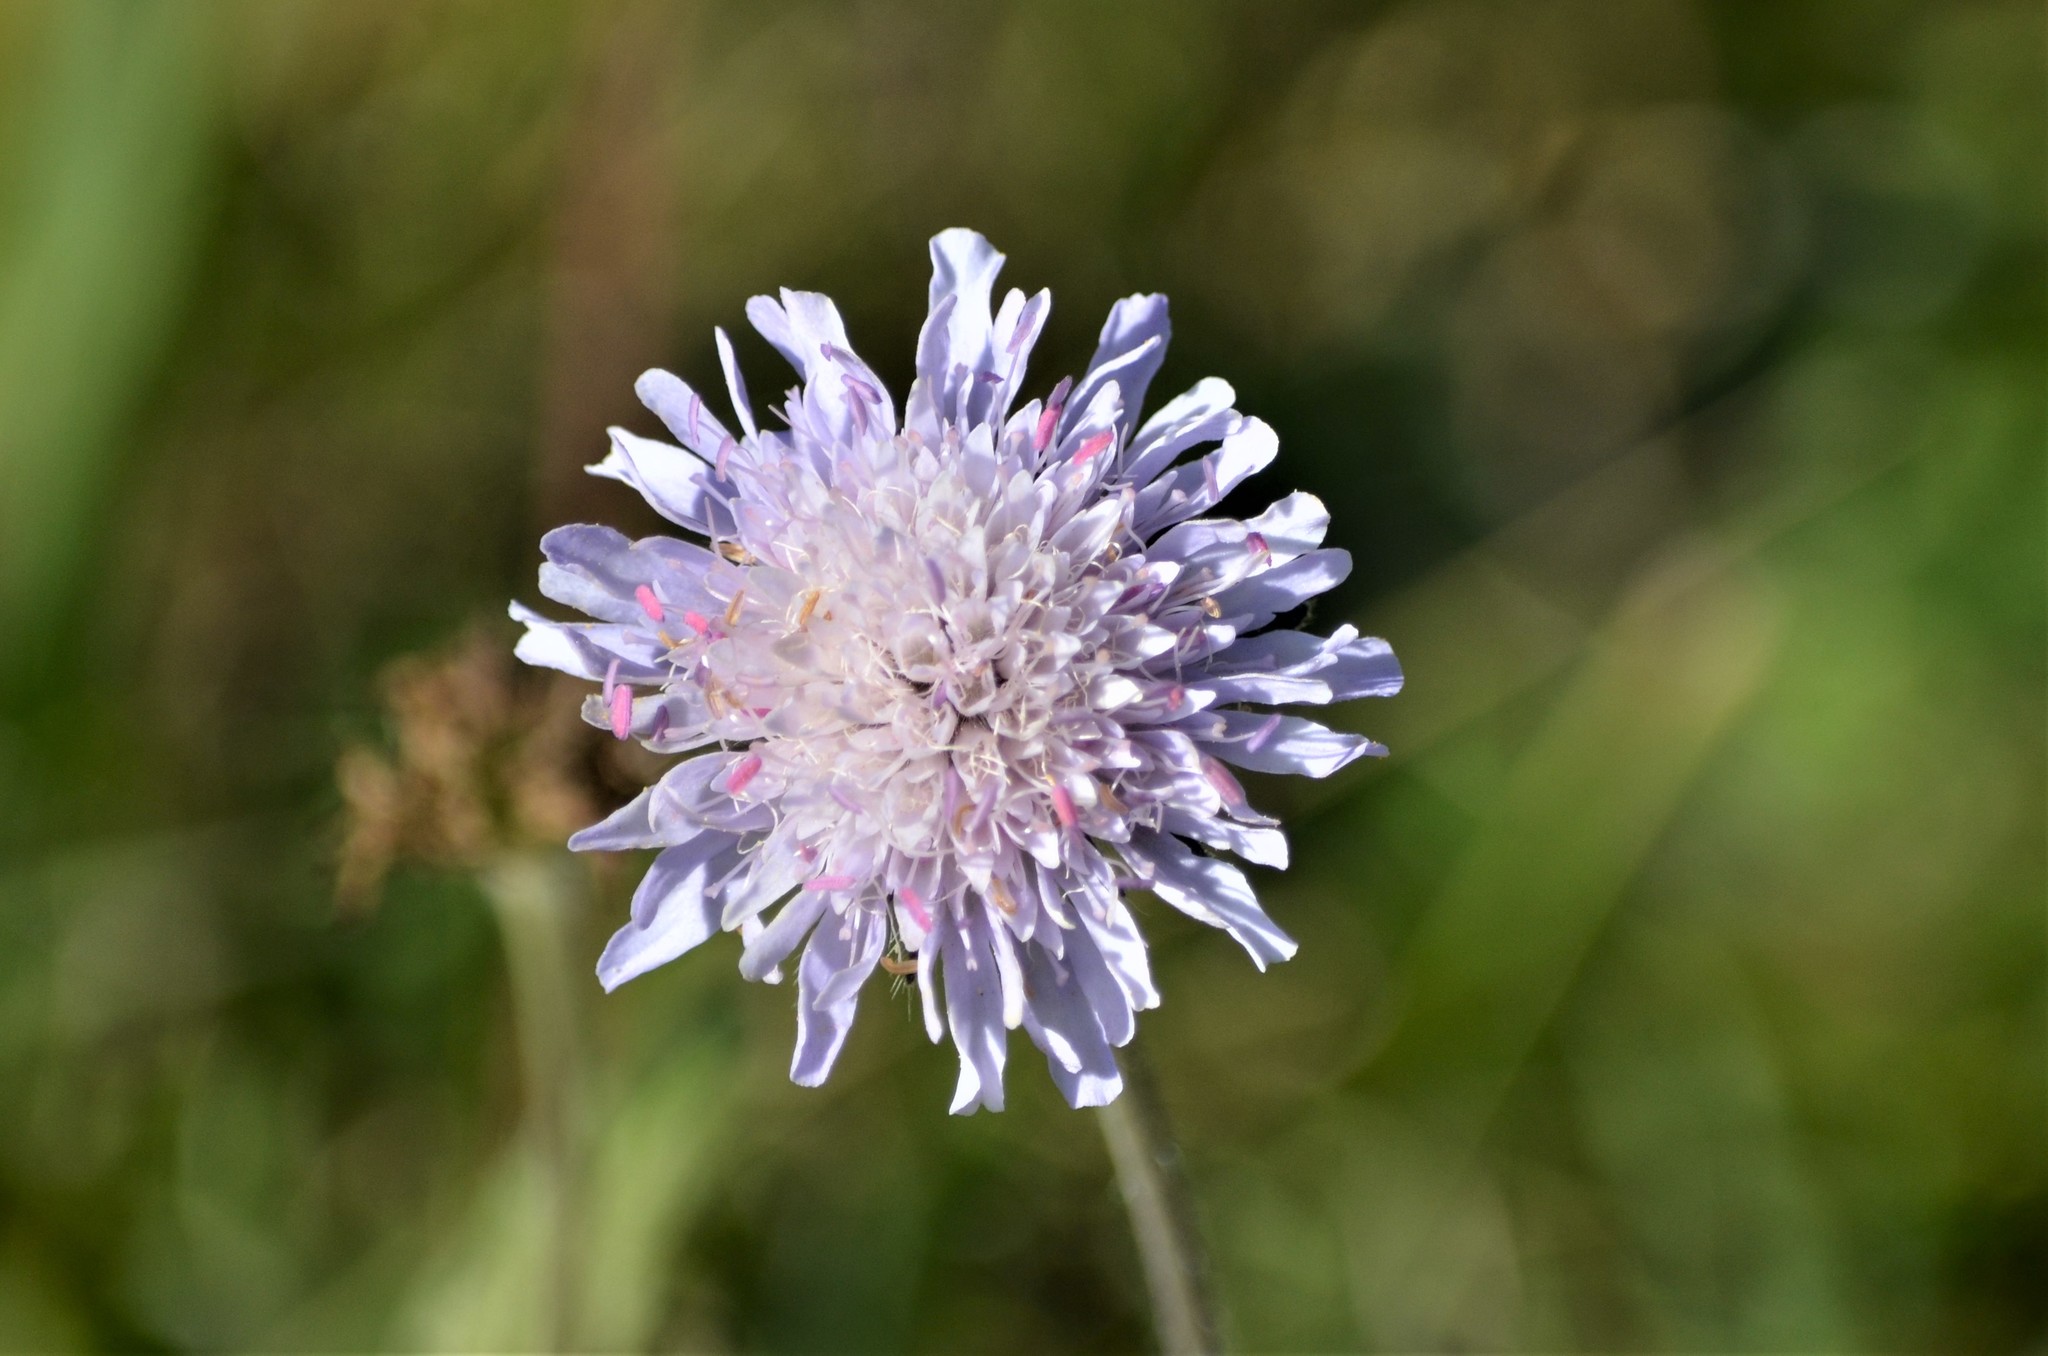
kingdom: Plantae
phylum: Tracheophyta
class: Magnoliopsida
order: Dipsacales
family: Caprifoliaceae
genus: Knautia
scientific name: Knautia arvensis
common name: Field scabiosa
